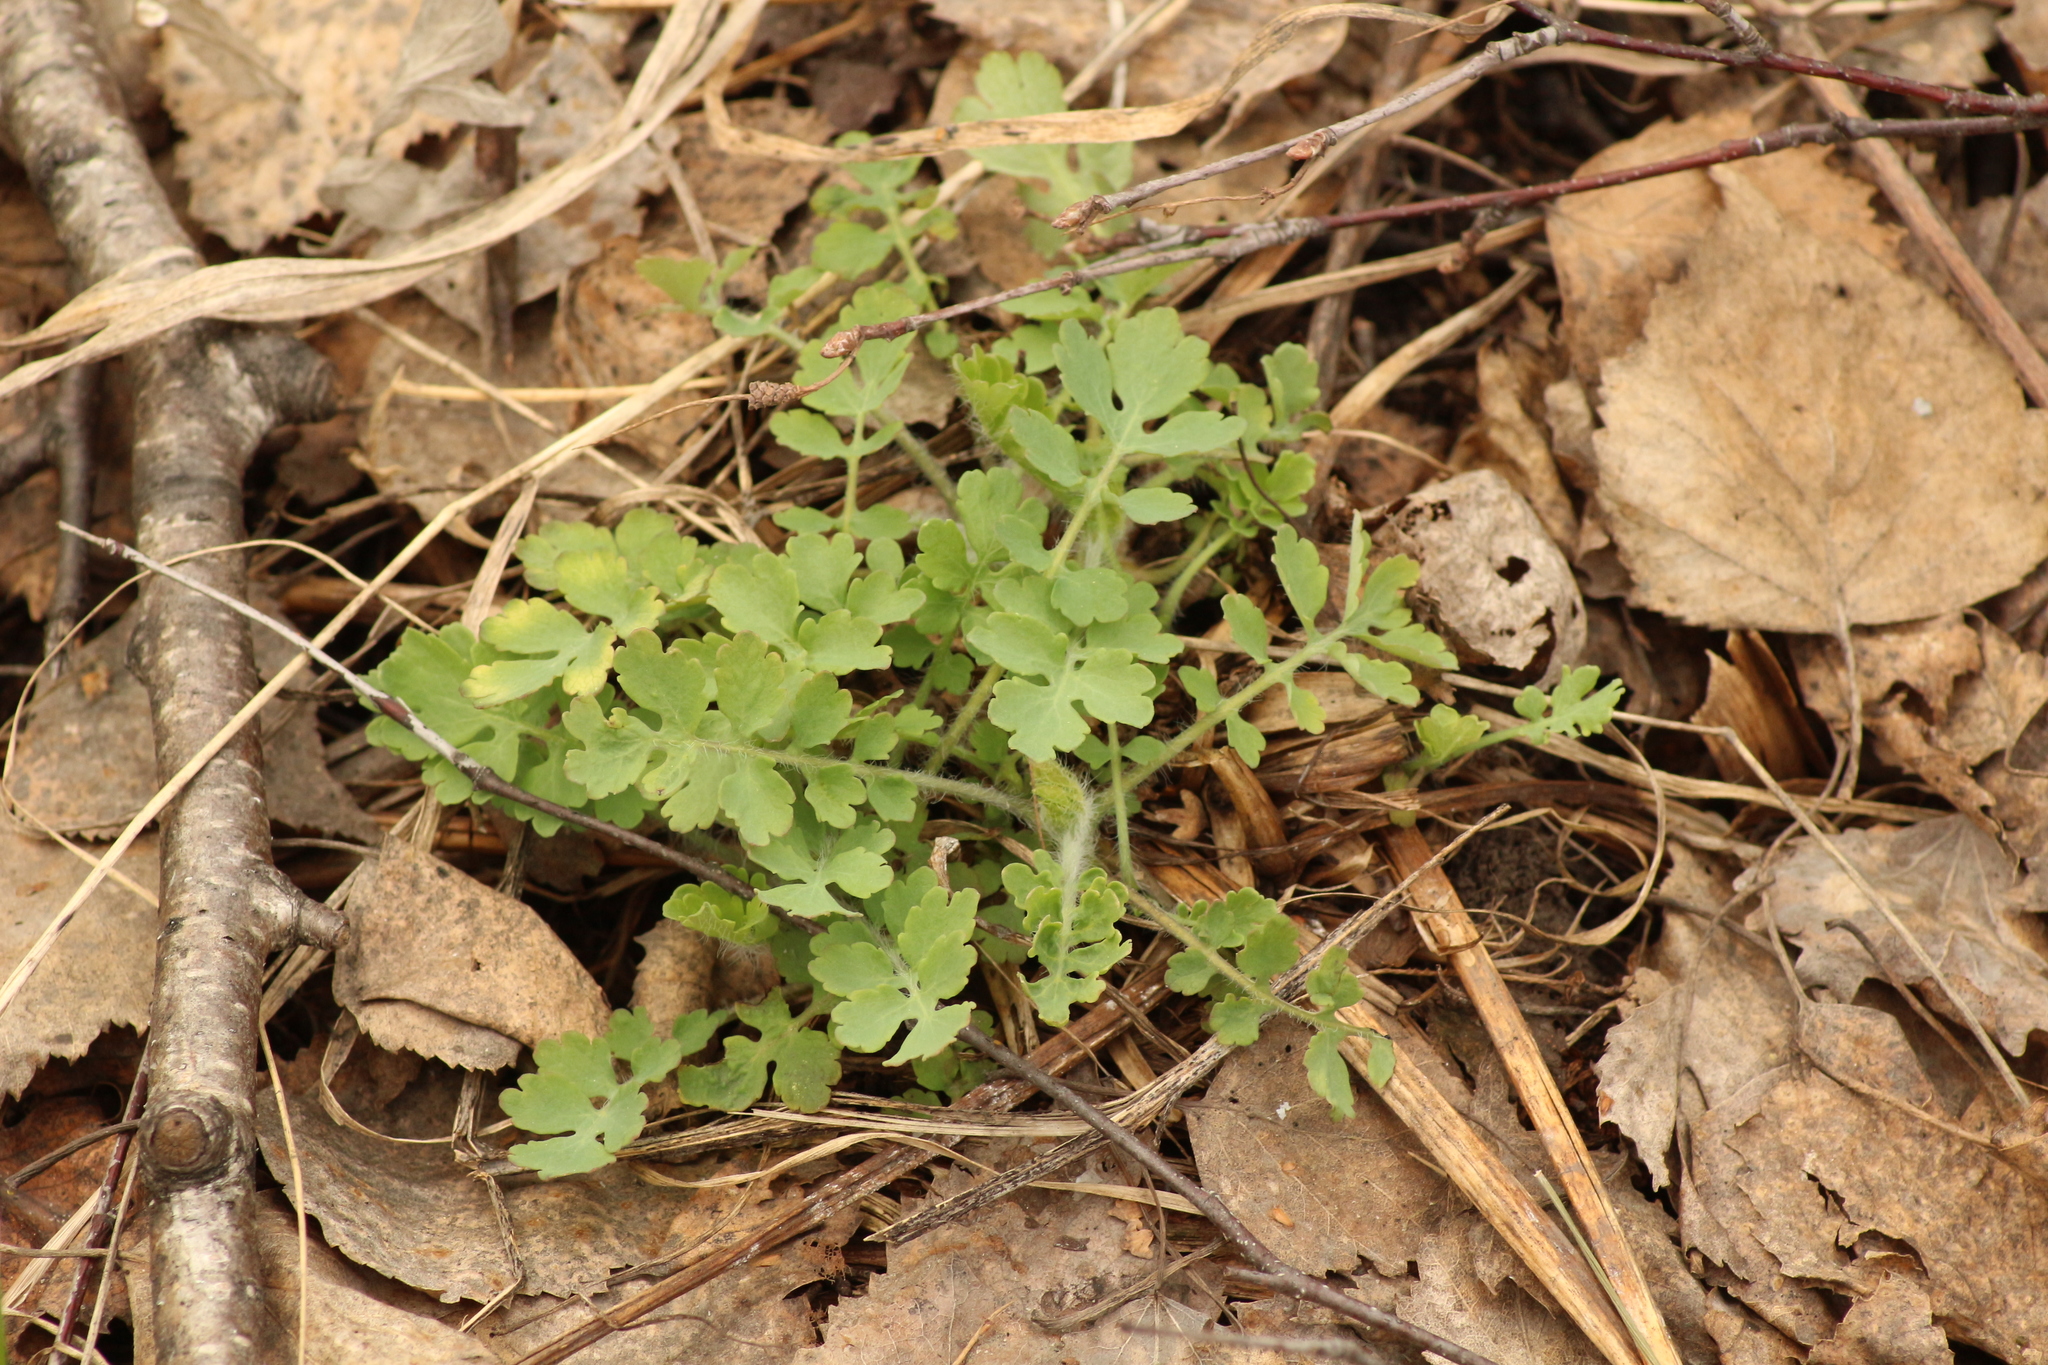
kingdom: Plantae
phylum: Tracheophyta
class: Magnoliopsida
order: Ranunculales
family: Papaveraceae
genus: Chelidonium
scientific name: Chelidonium majus
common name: Greater celandine
